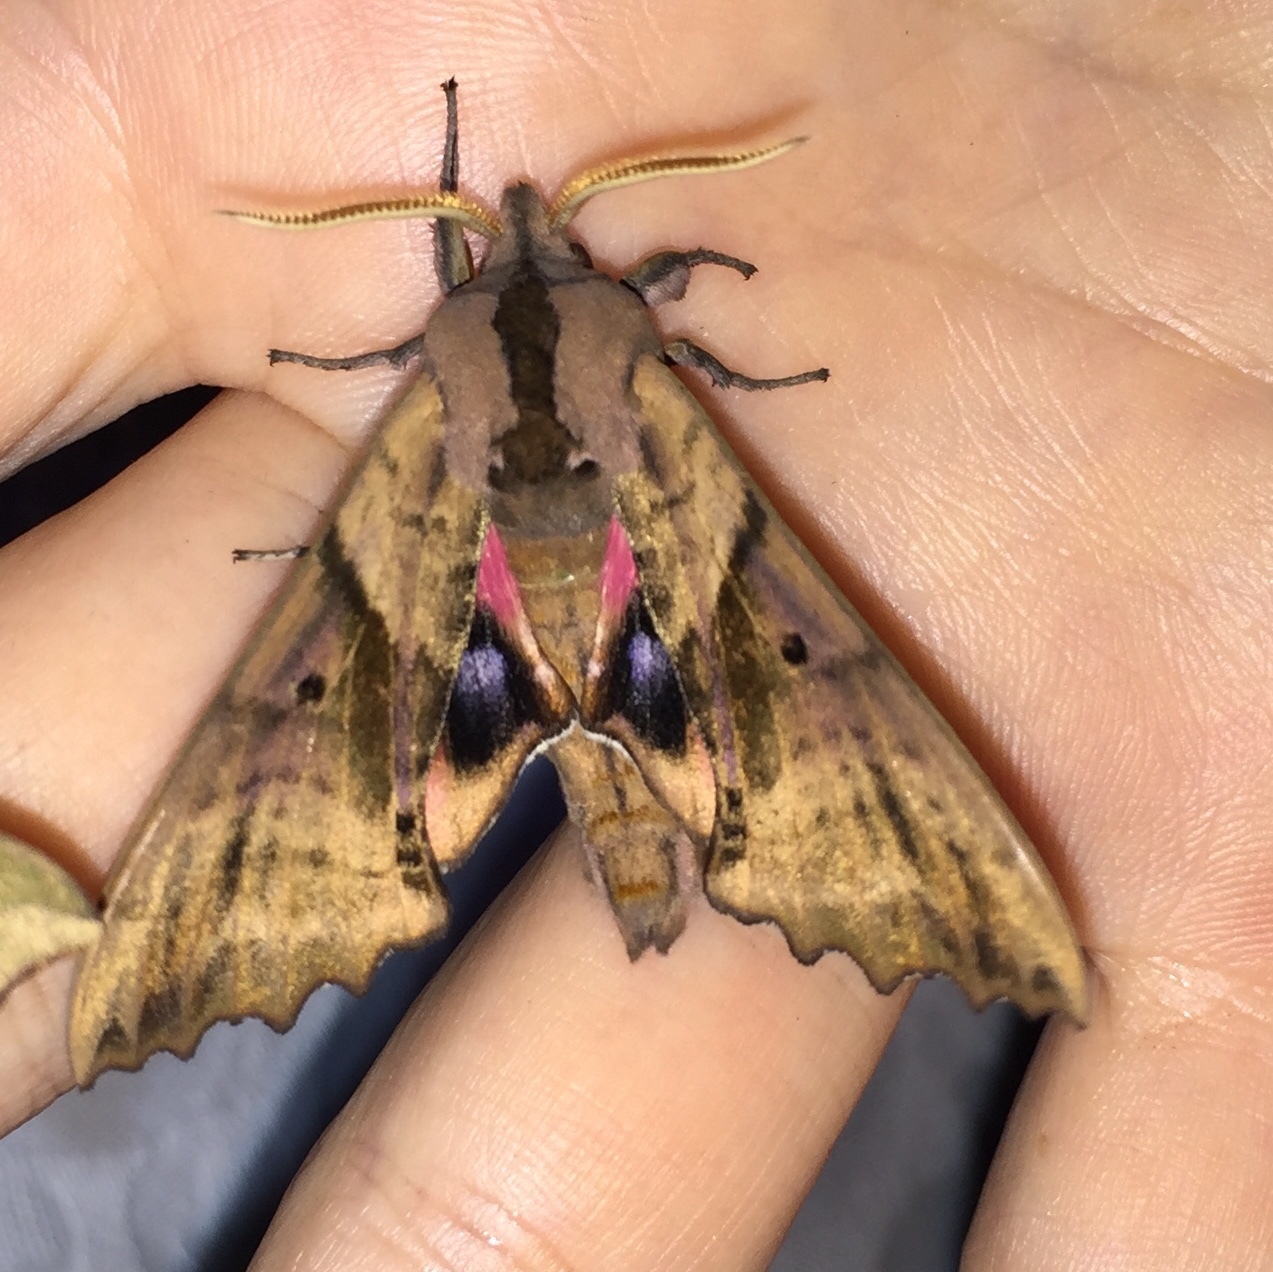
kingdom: Animalia
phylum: Arthropoda
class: Insecta
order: Lepidoptera
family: Sphingidae
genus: Paonias
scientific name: Paonias excaecata
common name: Blind-eyed sphinx
